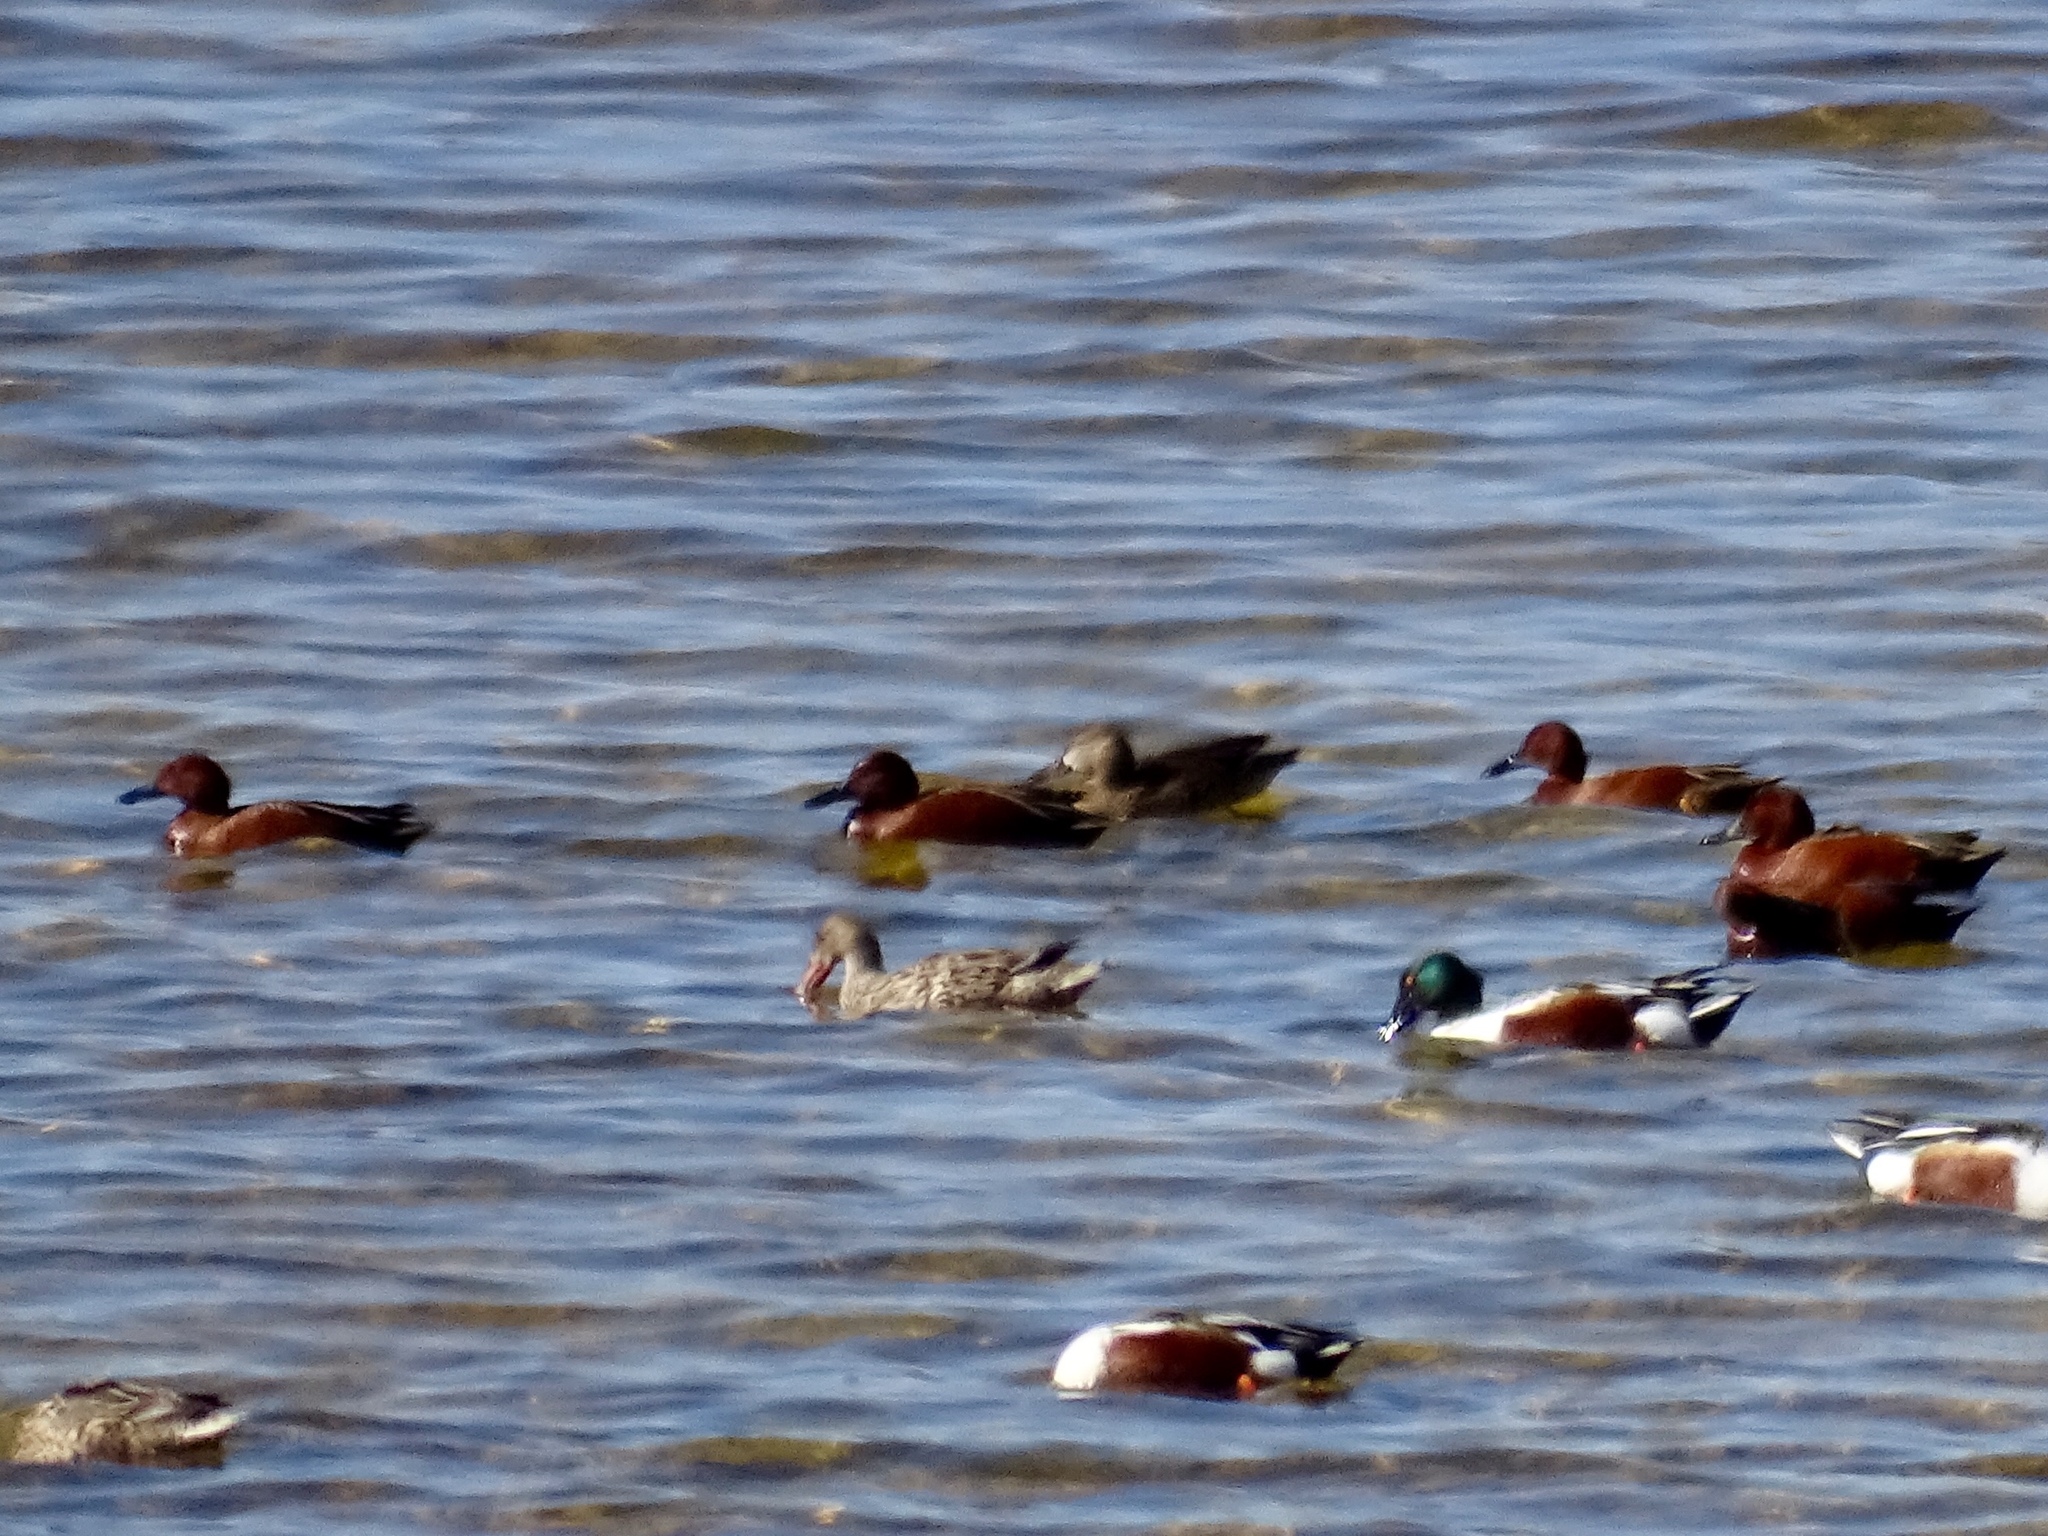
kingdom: Animalia
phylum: Chordata
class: Aves
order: Anseriformes
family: Anatidae
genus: Spatula
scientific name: Spatula cyanoptera
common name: Cinnamon teal
